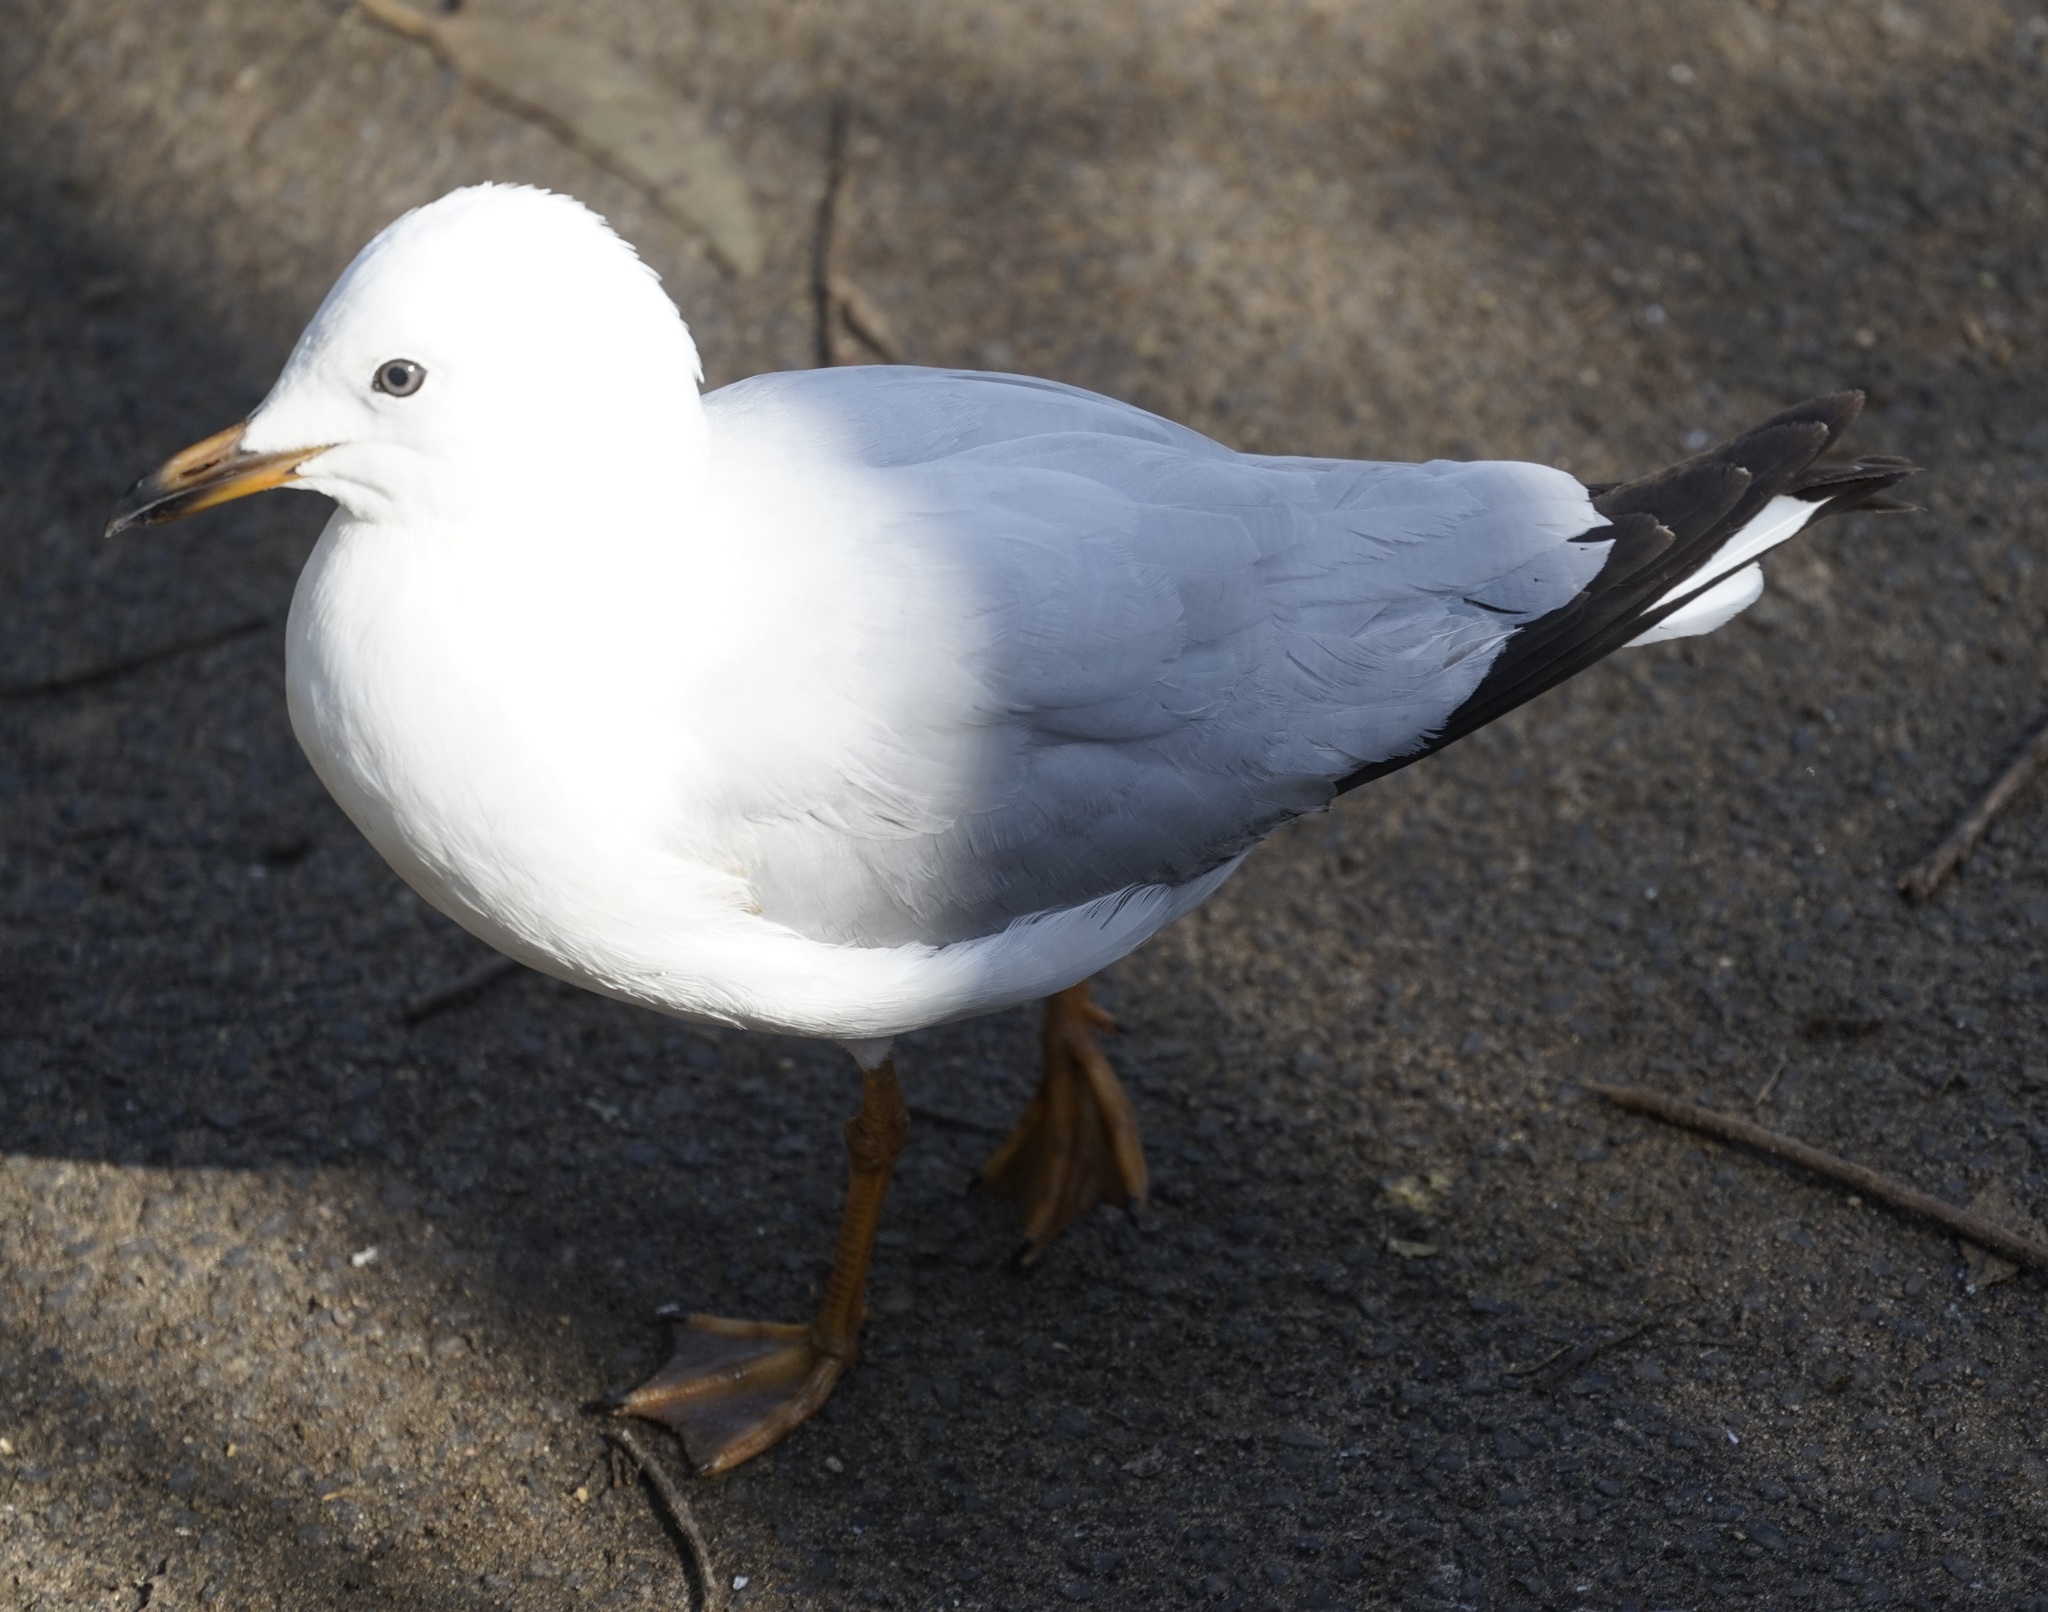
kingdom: Animalia
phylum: Chordata
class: Aves
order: Charadriiformes
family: Laridae
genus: Chroicocephalus
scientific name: Chroicocephalus novaehollandiae
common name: Silver gull
